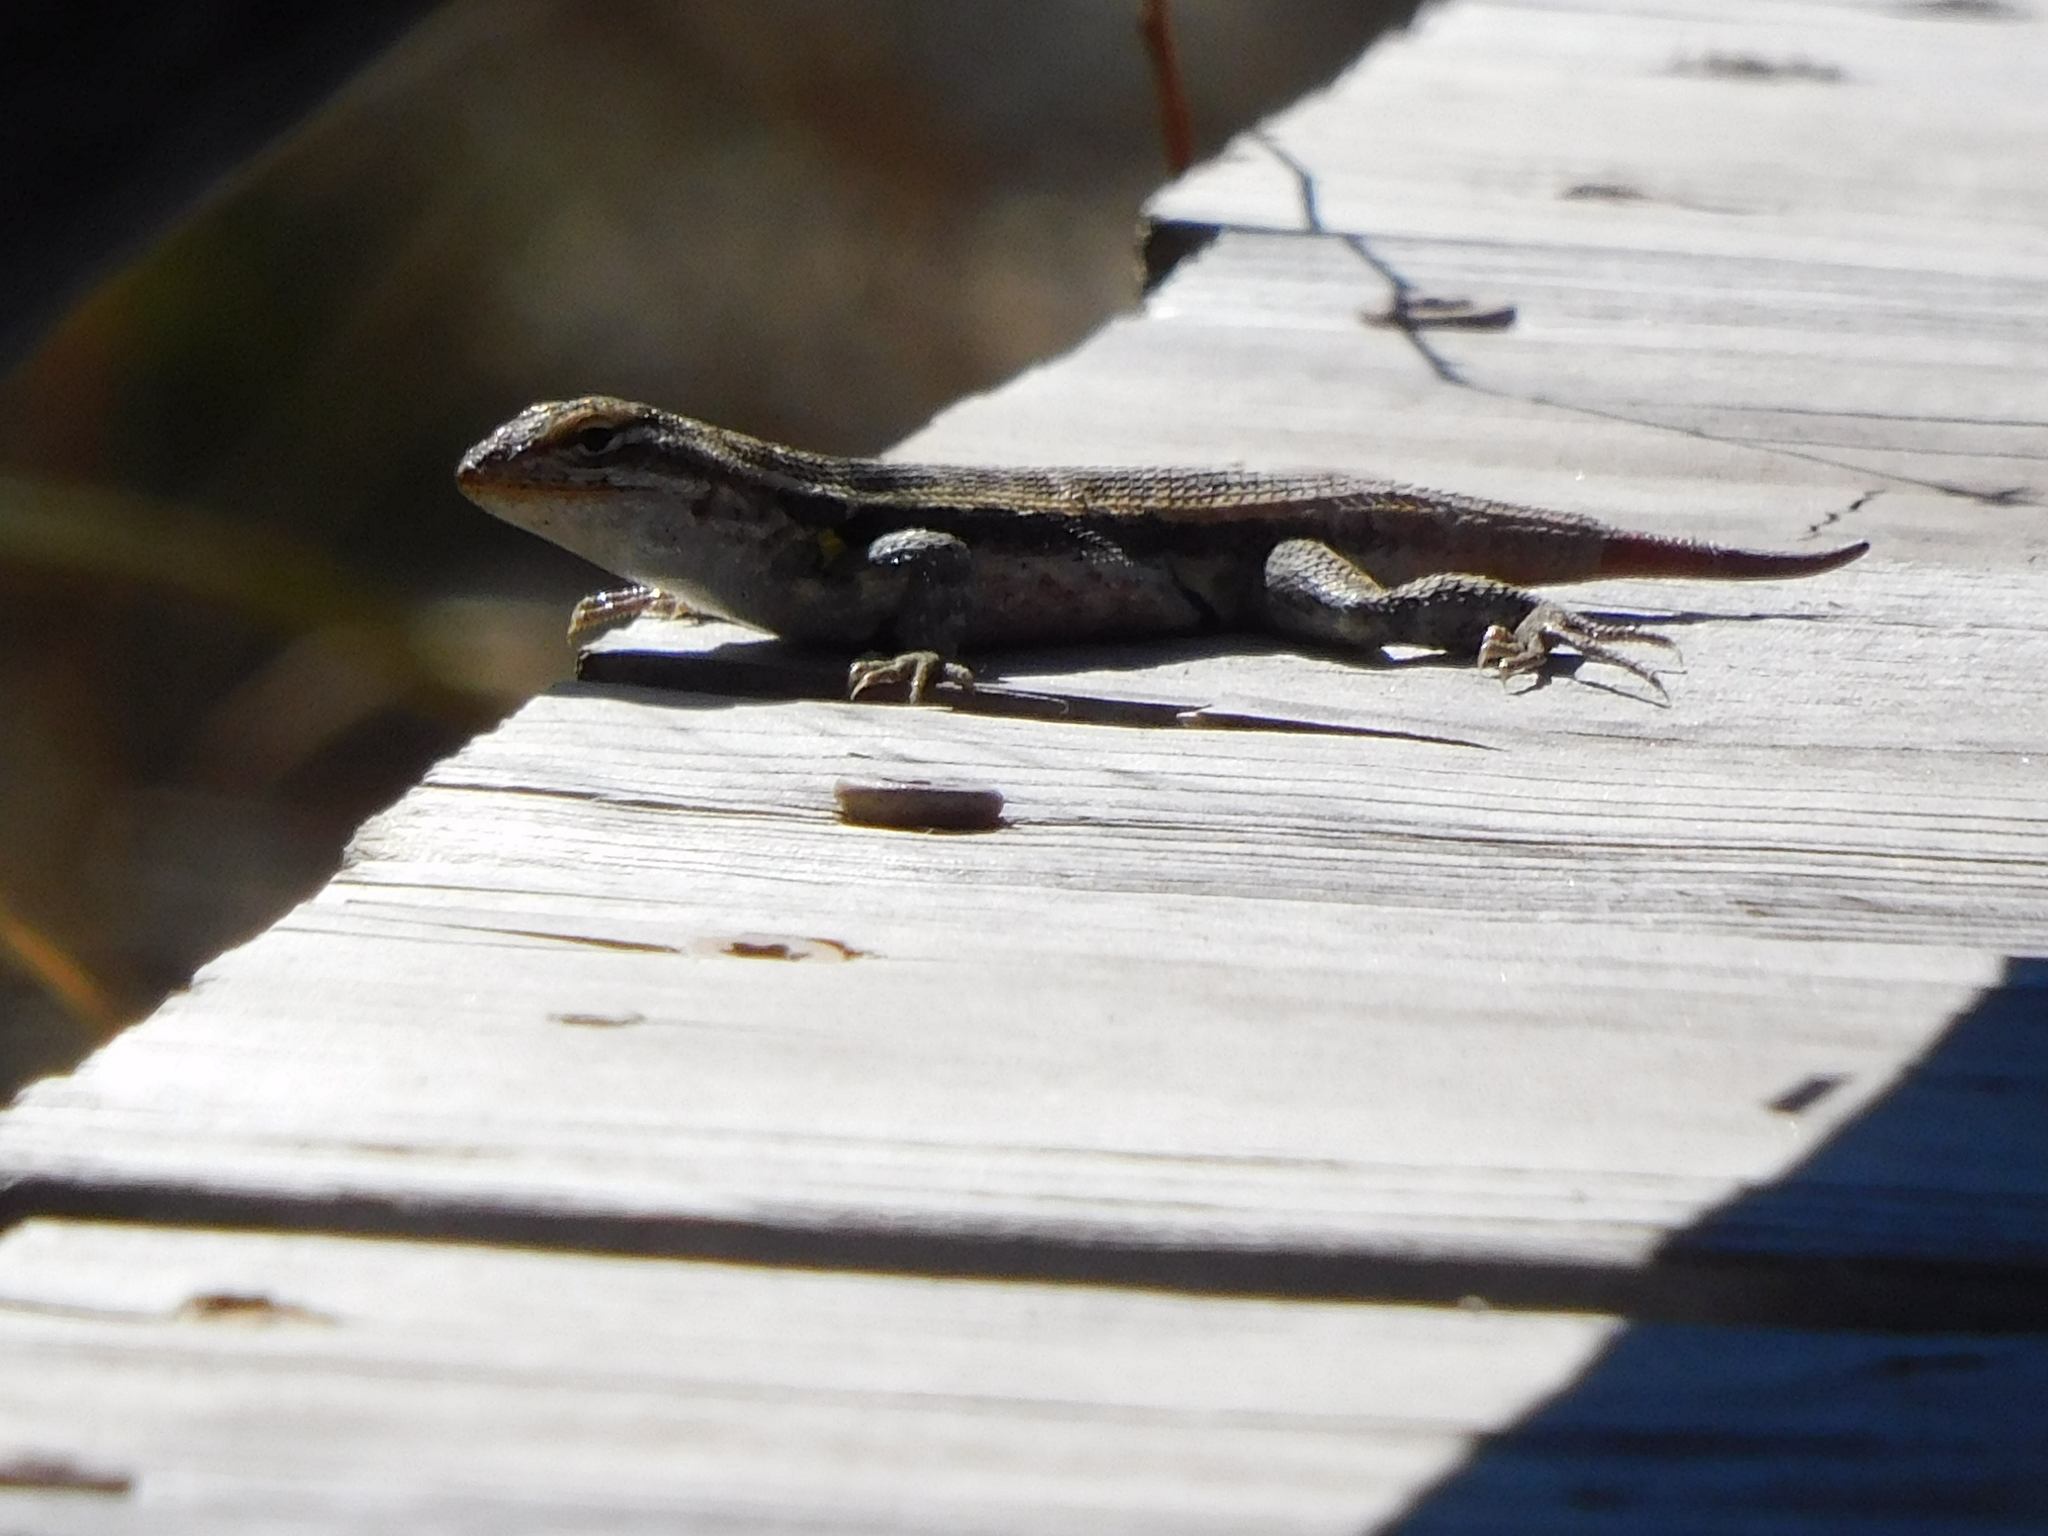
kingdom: Animalia
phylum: Chordata
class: Squamata
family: Phrynosomatidae
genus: Sceloporus
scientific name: Sceloporus variabilis
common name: Rosebelly lizard
